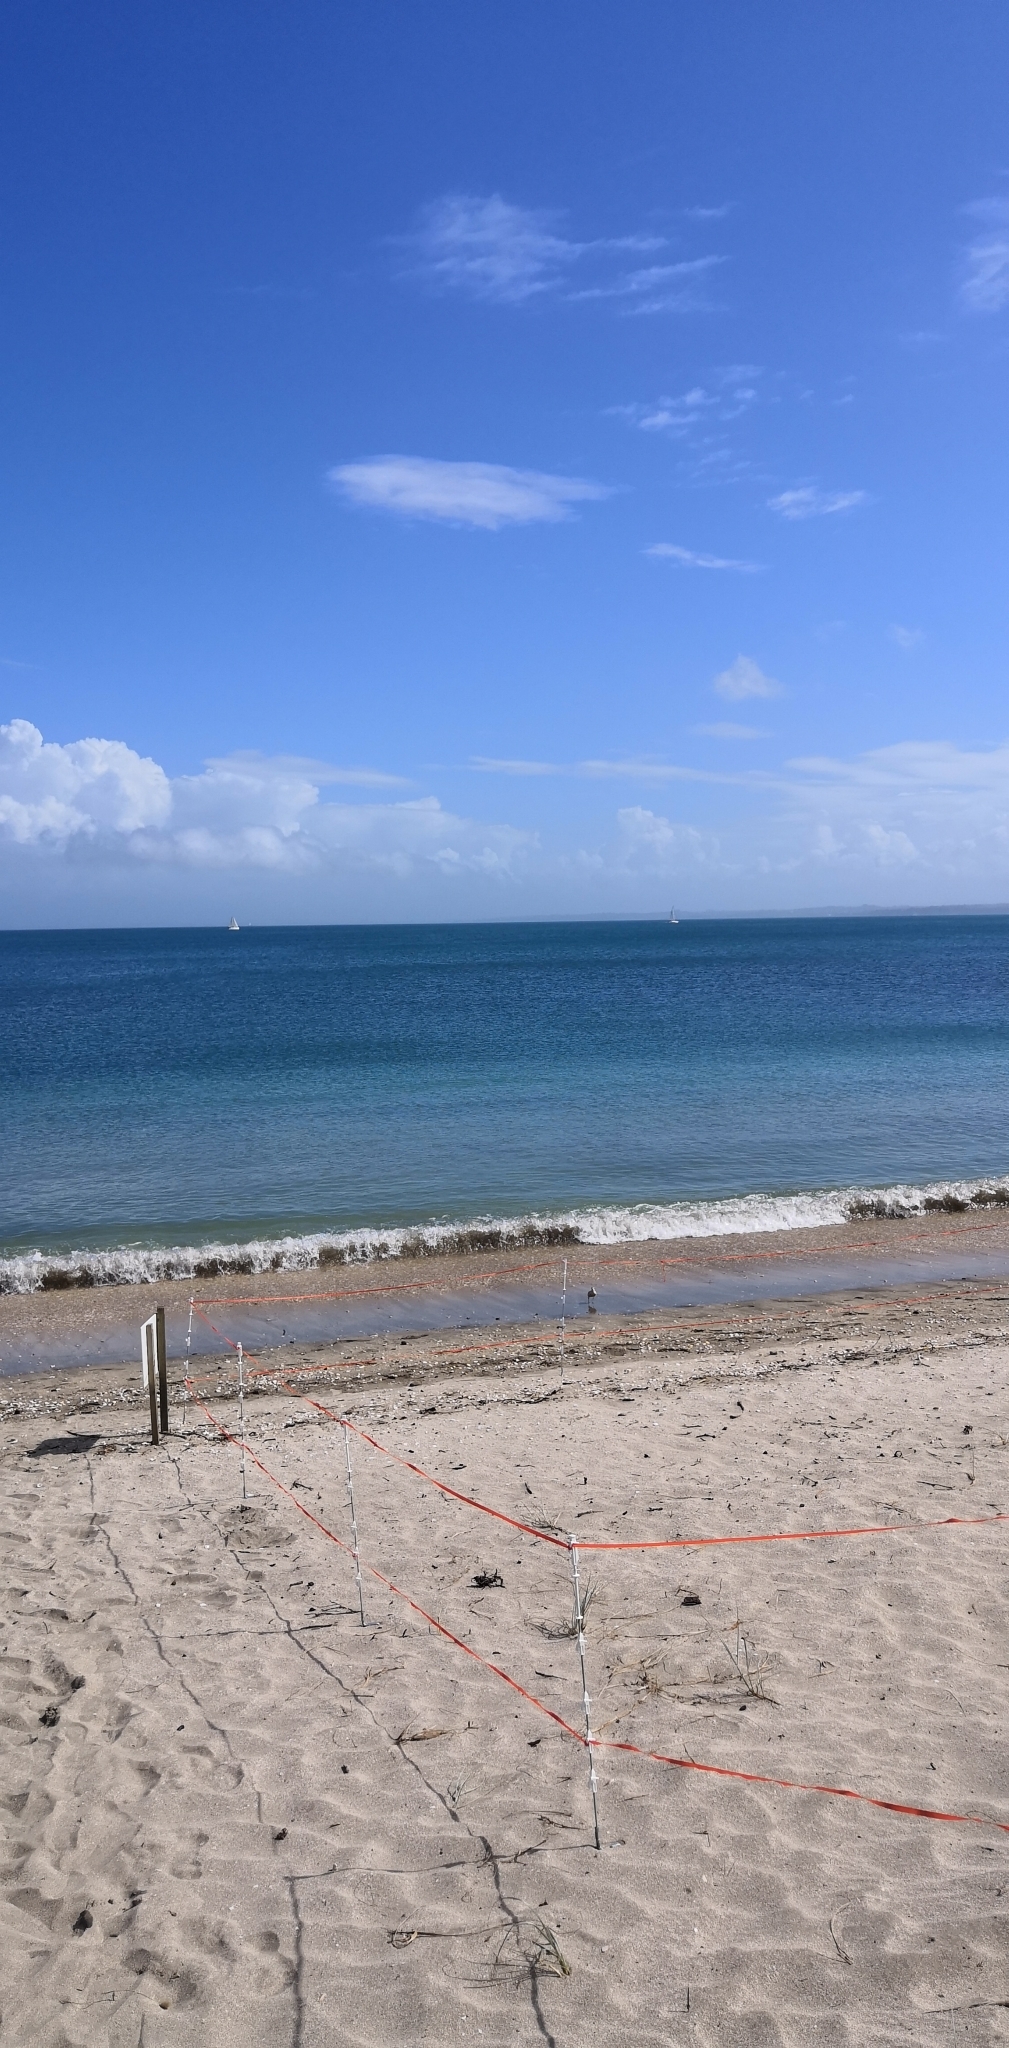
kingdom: Animalia
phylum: Chordata
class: Aves
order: Charadriiformes
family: Charadriidae
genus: Anarhynchus
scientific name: Anarhynchus
